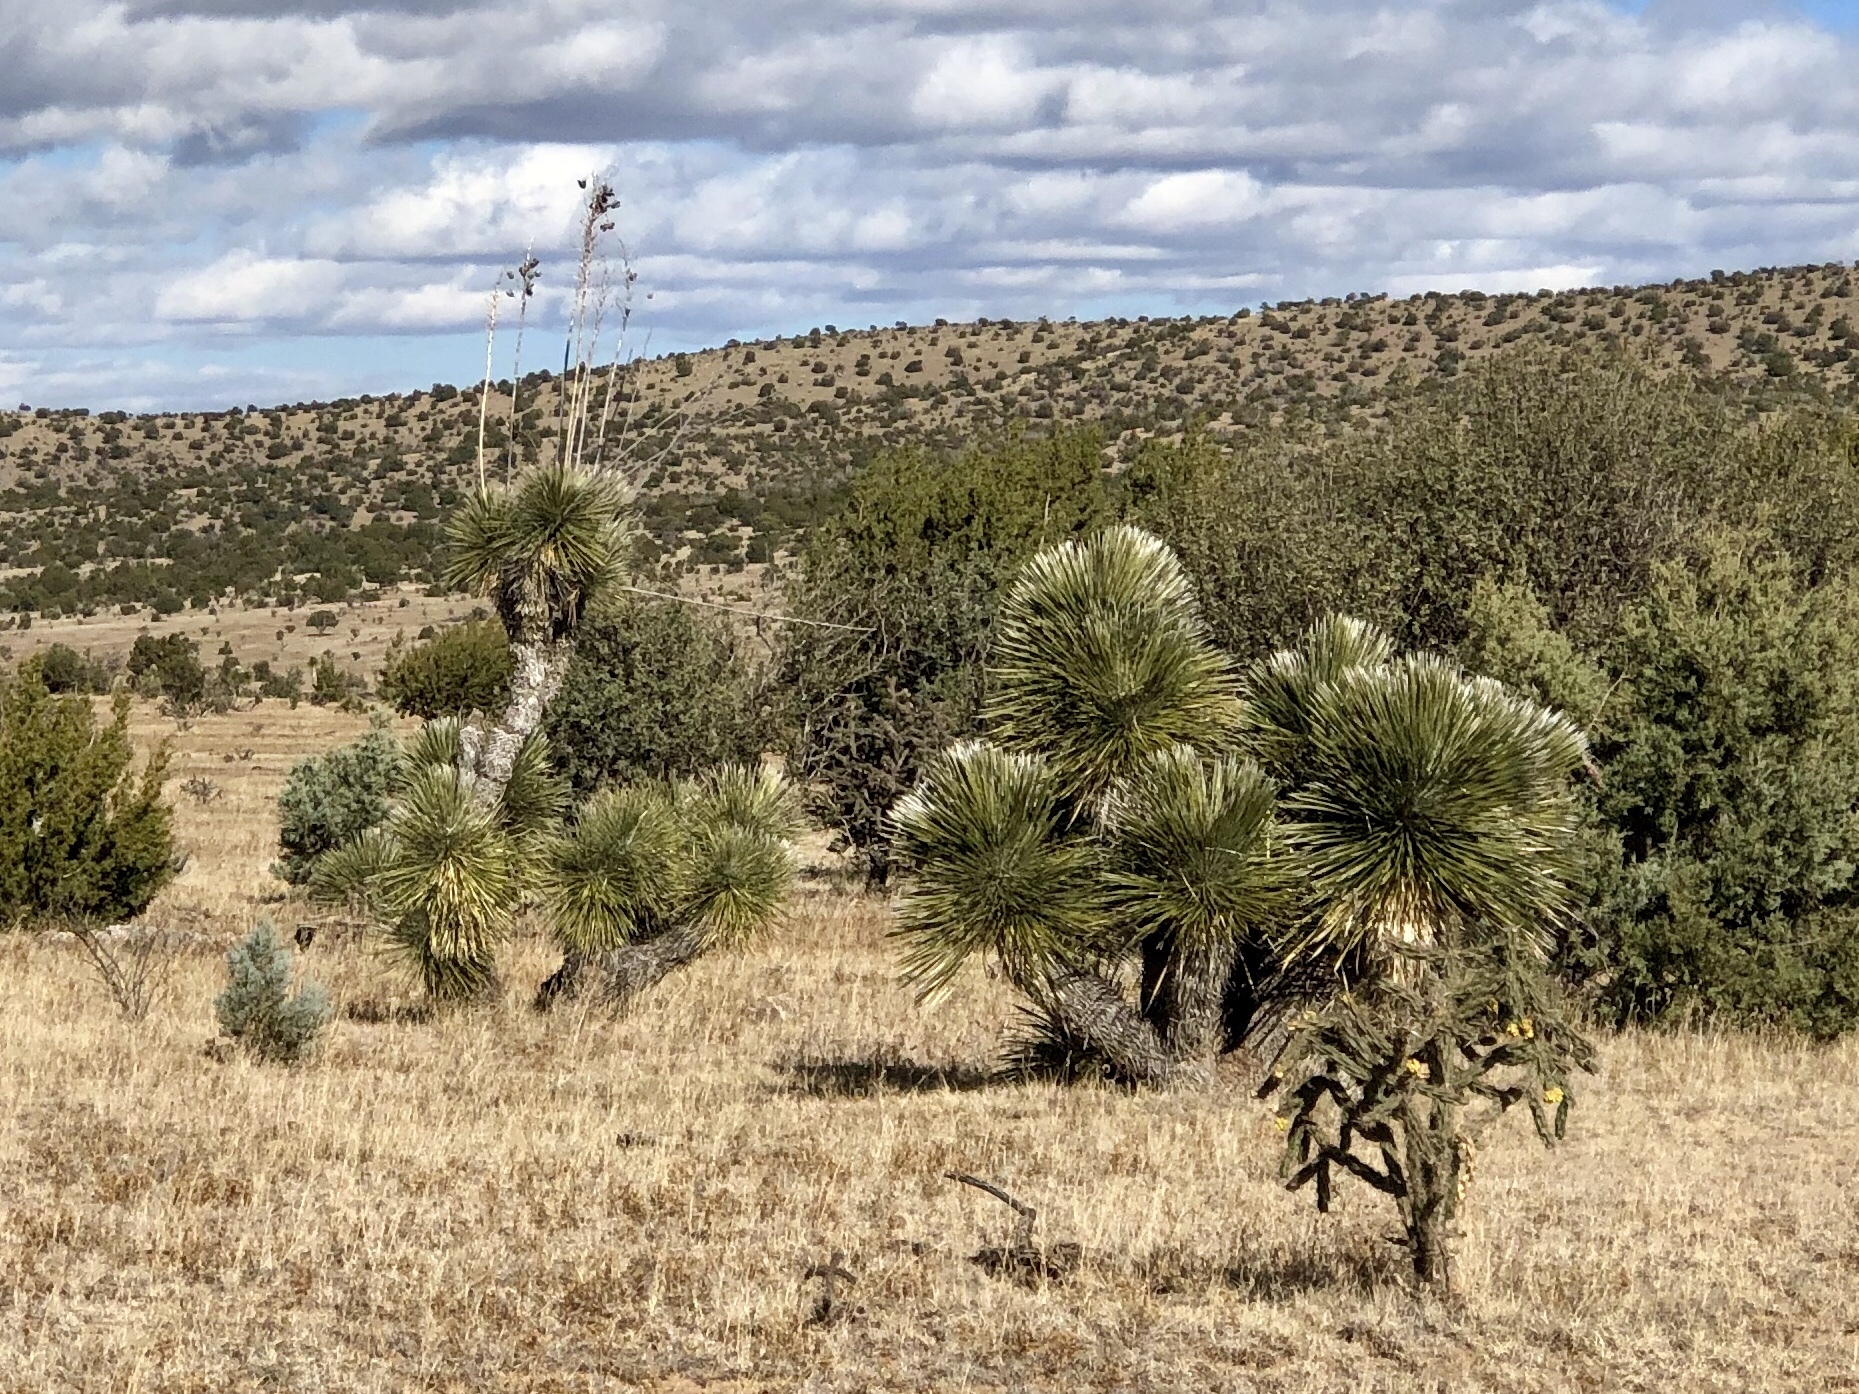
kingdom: Plantae
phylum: Tracheophyta
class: Liliopsida
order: Asparagales
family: Asparagaceae
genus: Yucca
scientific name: Yucca elata
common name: Palmella
